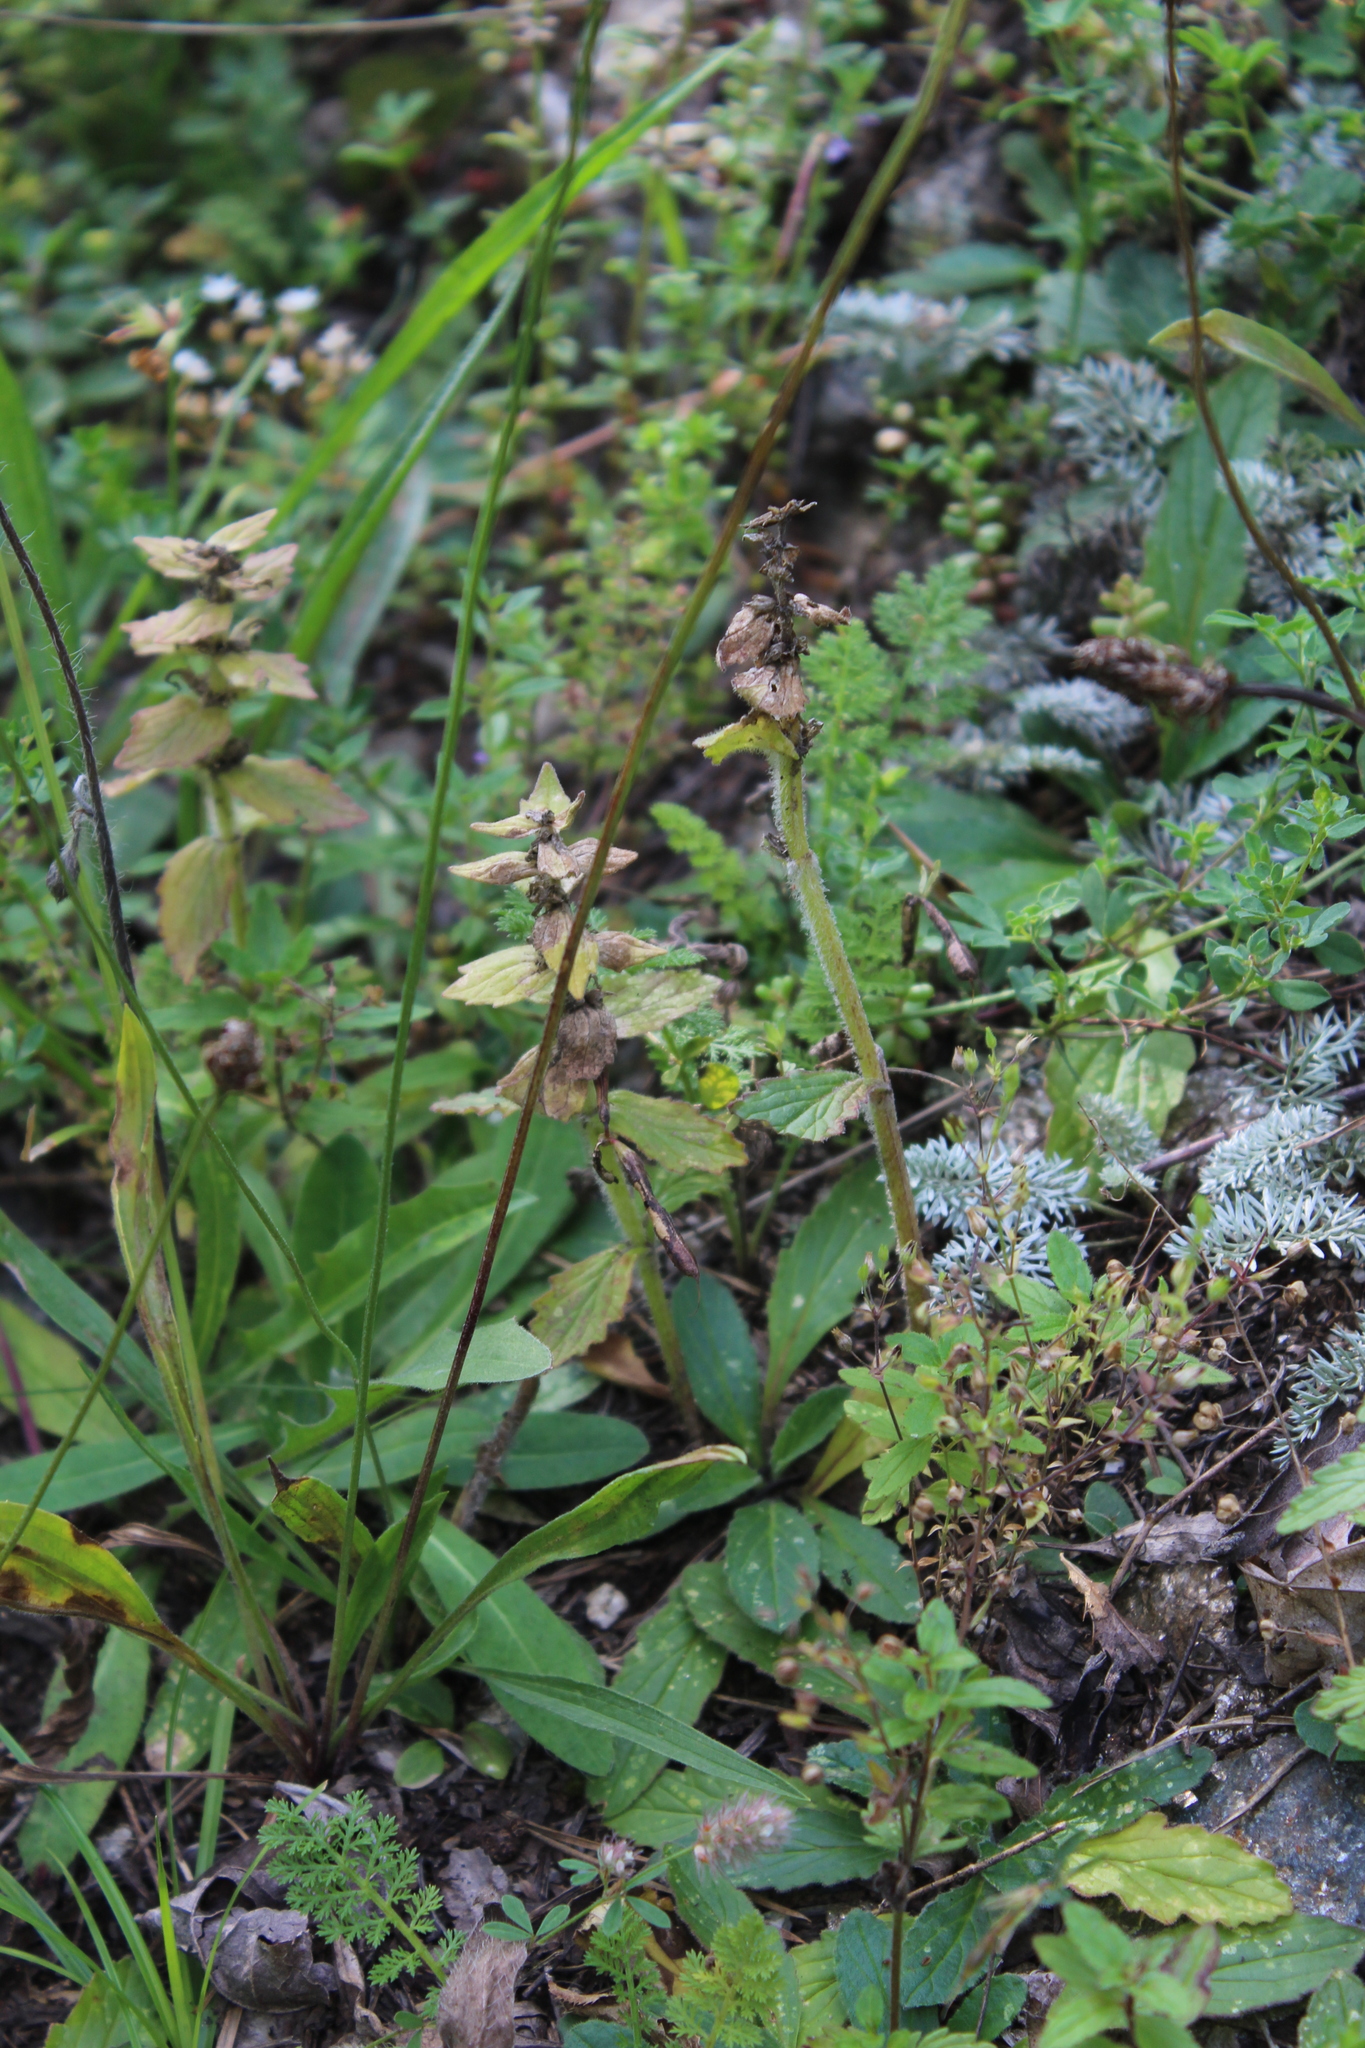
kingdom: Plantae
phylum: Tracheophyta
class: Magnoliopsida
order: Lamiales
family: Lamiaceae
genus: Ajuga
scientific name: Ajuga genevensis
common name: Blue bugle
